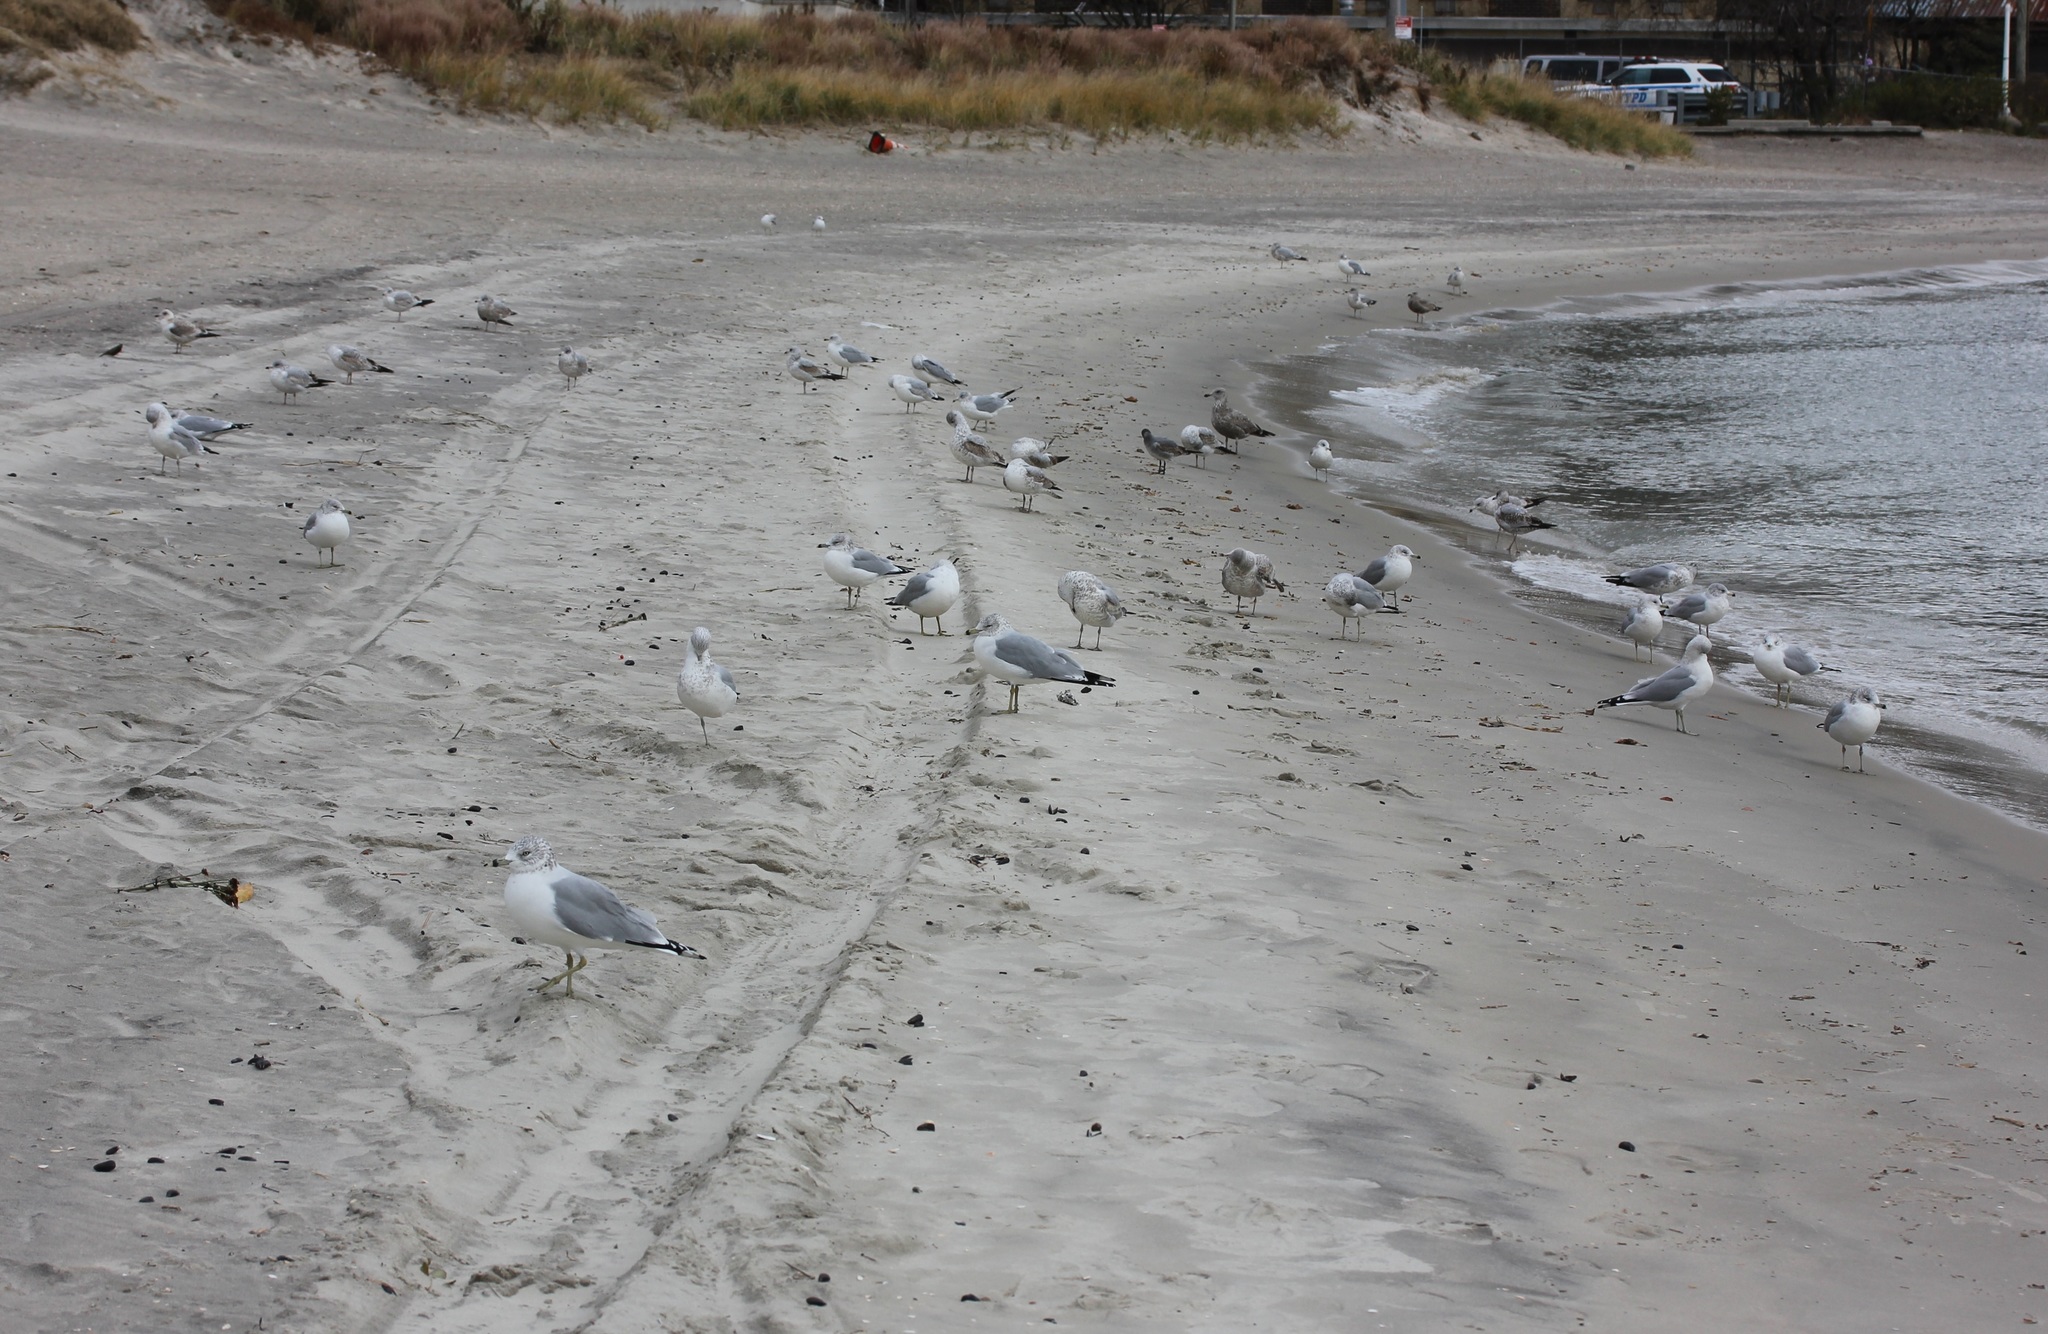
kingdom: Animalia
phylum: Chordata
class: Aves
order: Charadriiformes
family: Laridae
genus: Larus
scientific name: Larus delawarensis
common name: Ring-billed gull
